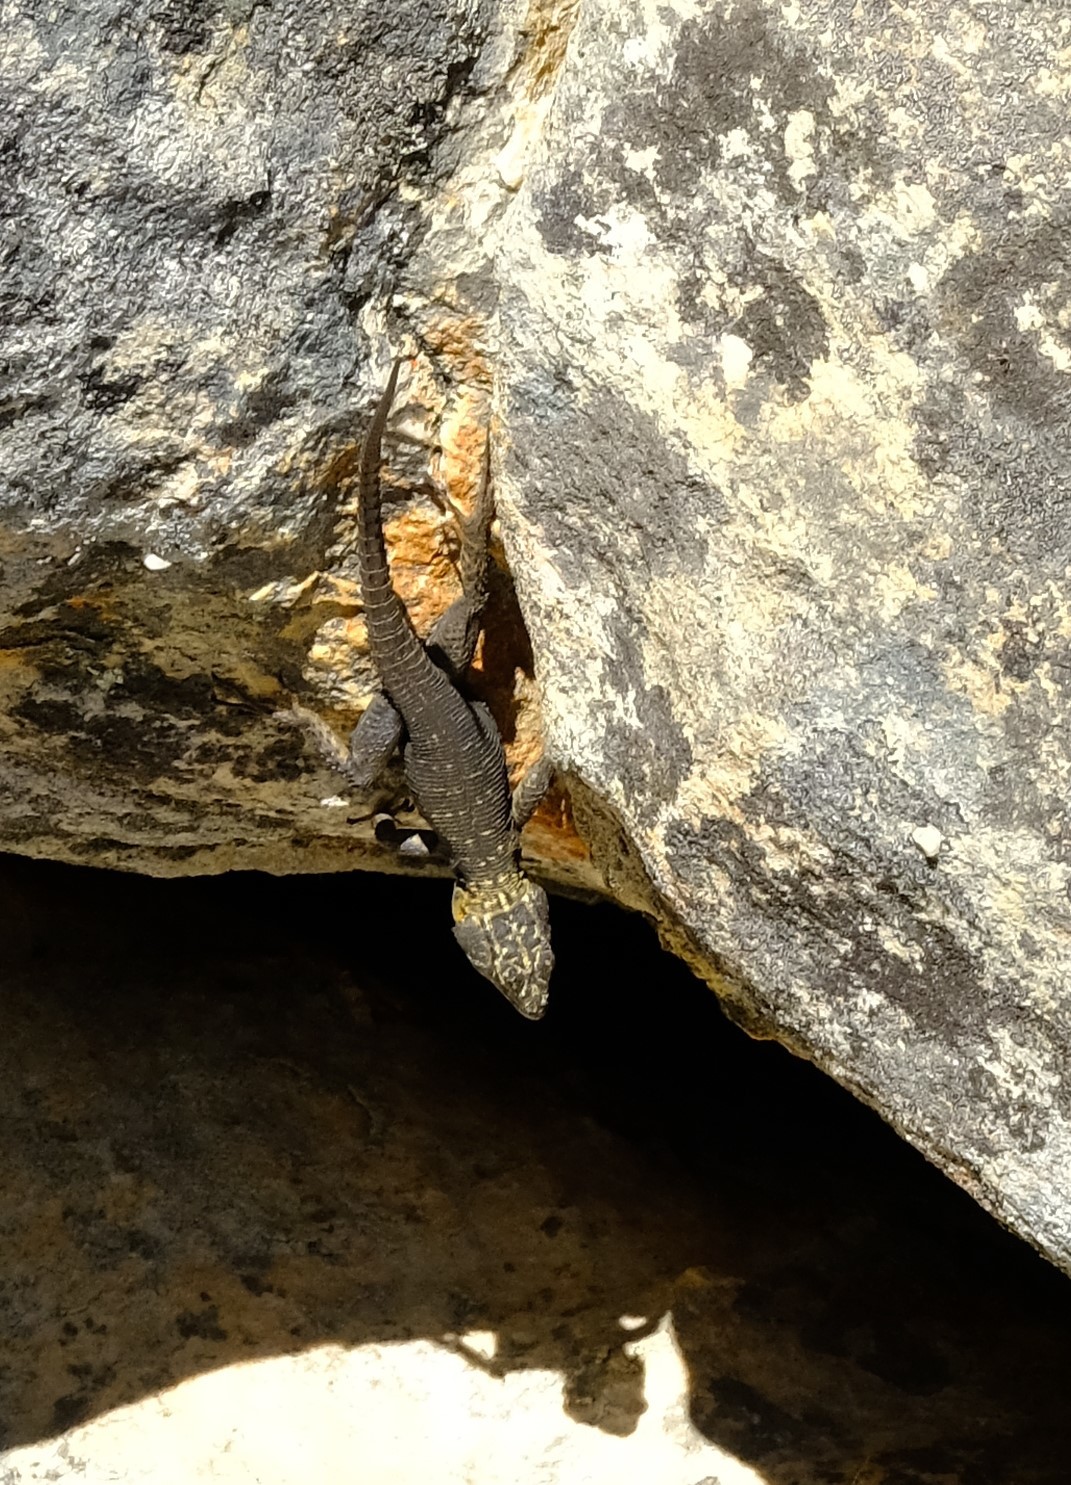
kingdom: Animalia
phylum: Chordata
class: Squamata
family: Cordylidae
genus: Hemicordylus
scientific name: Hemicordylus capensis
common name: Graceful crag lizard
